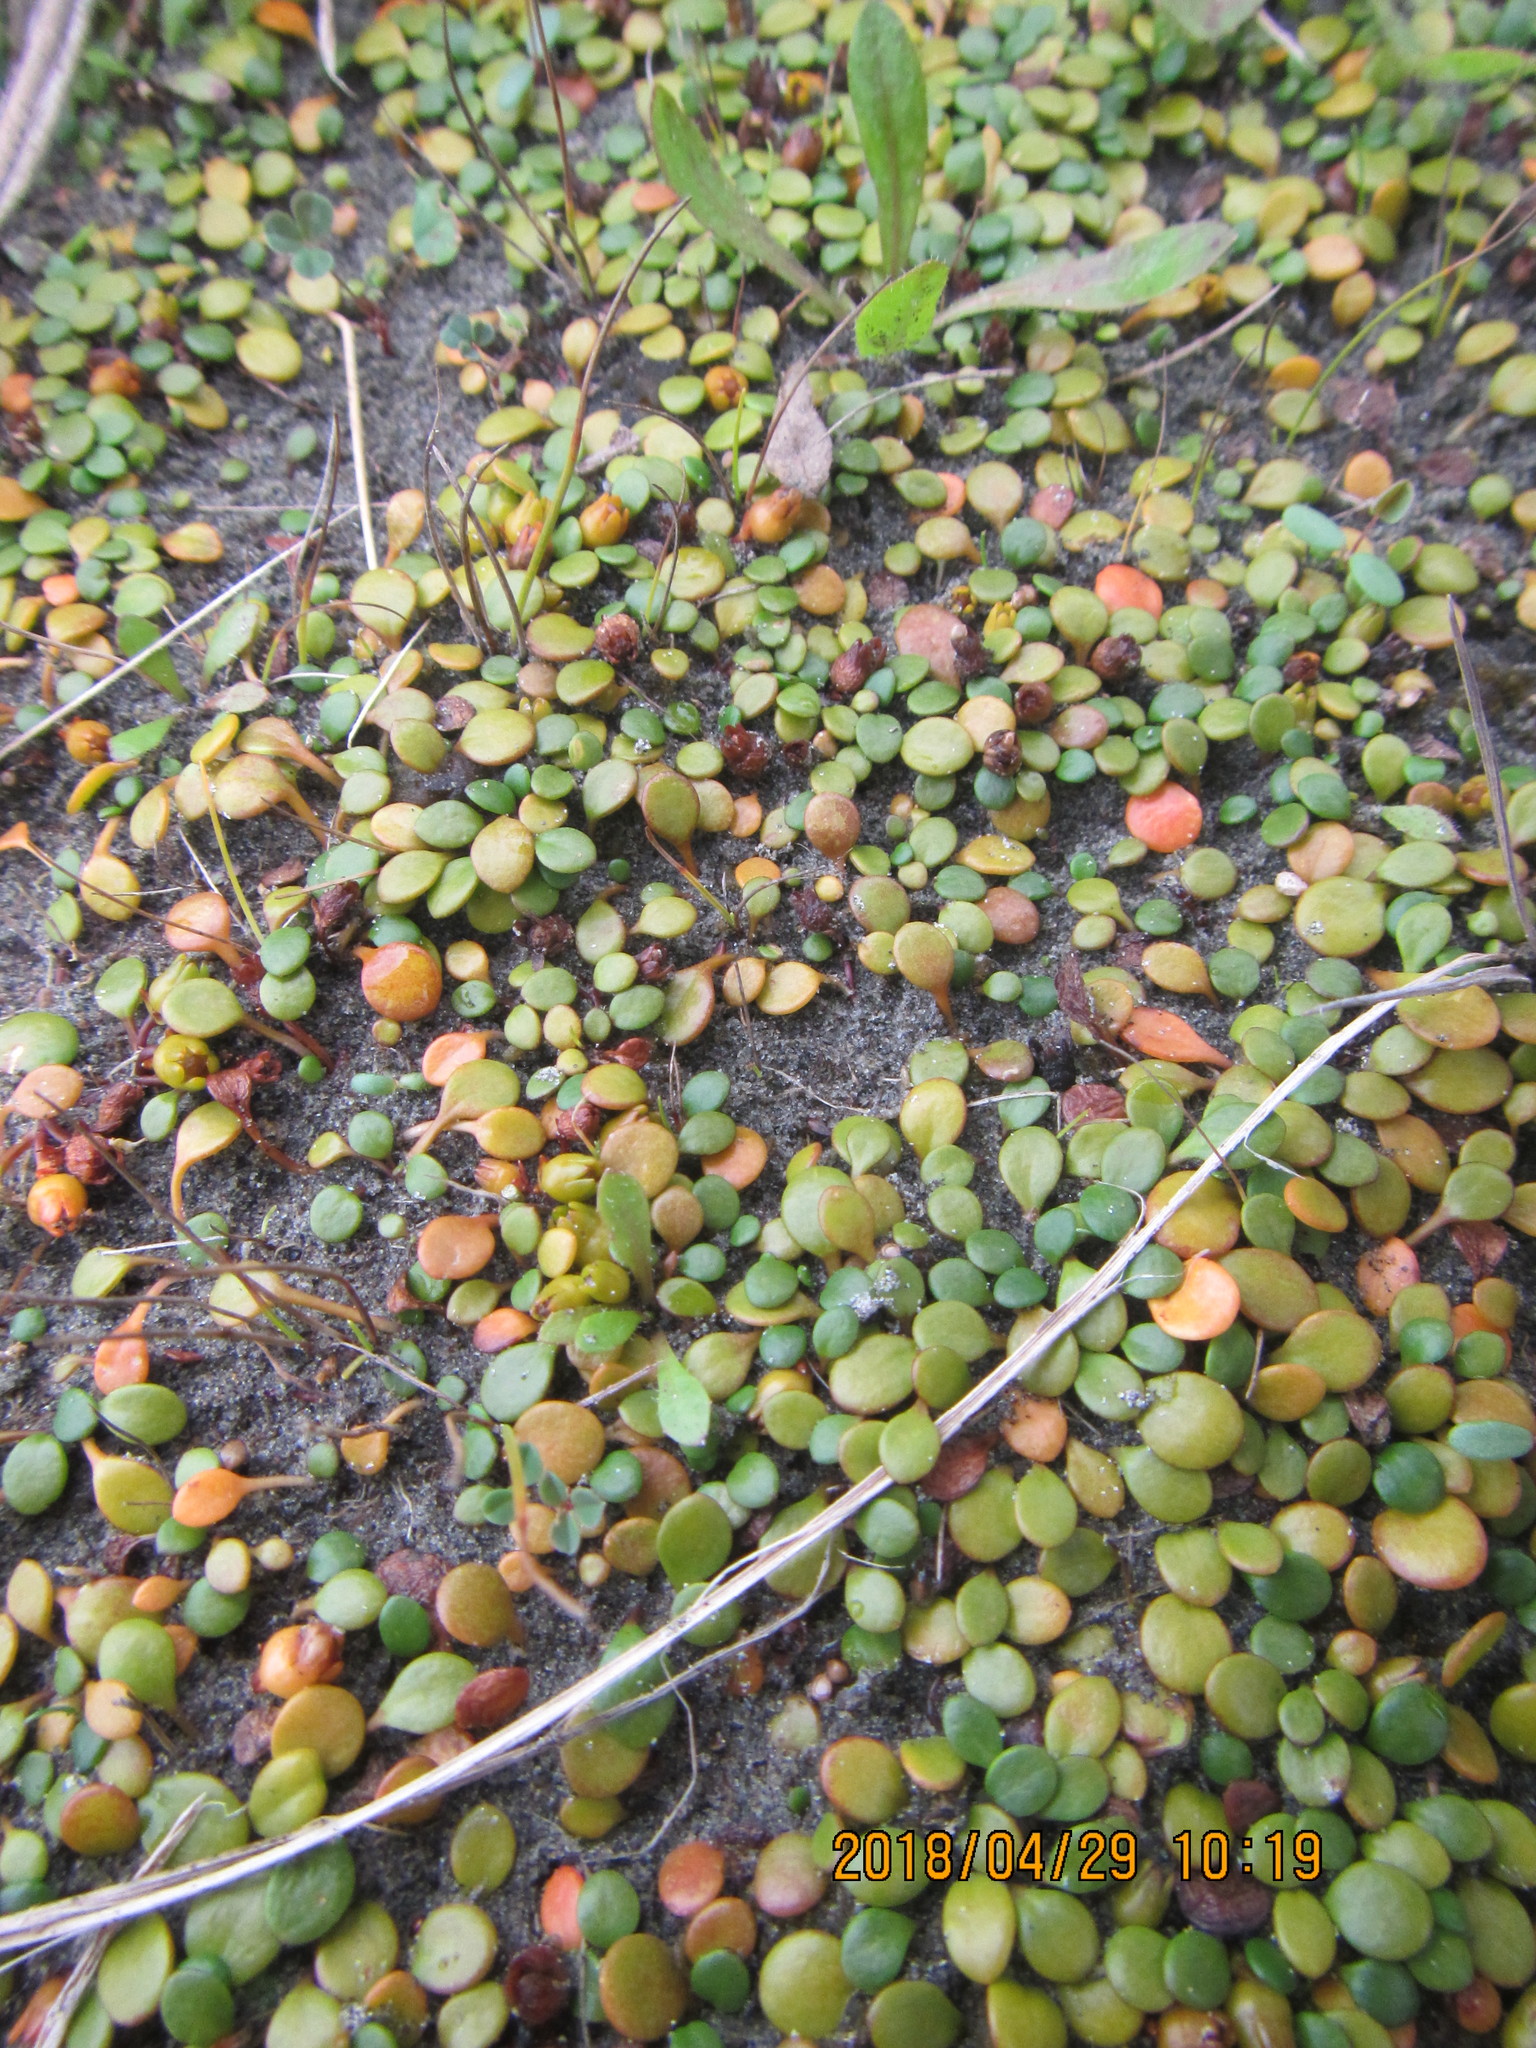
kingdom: Plantae
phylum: Tracheophyta
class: Magnoliopsida
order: Asterales
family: Goodeniaceae
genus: Goodenia
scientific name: Goodenia heenanii
